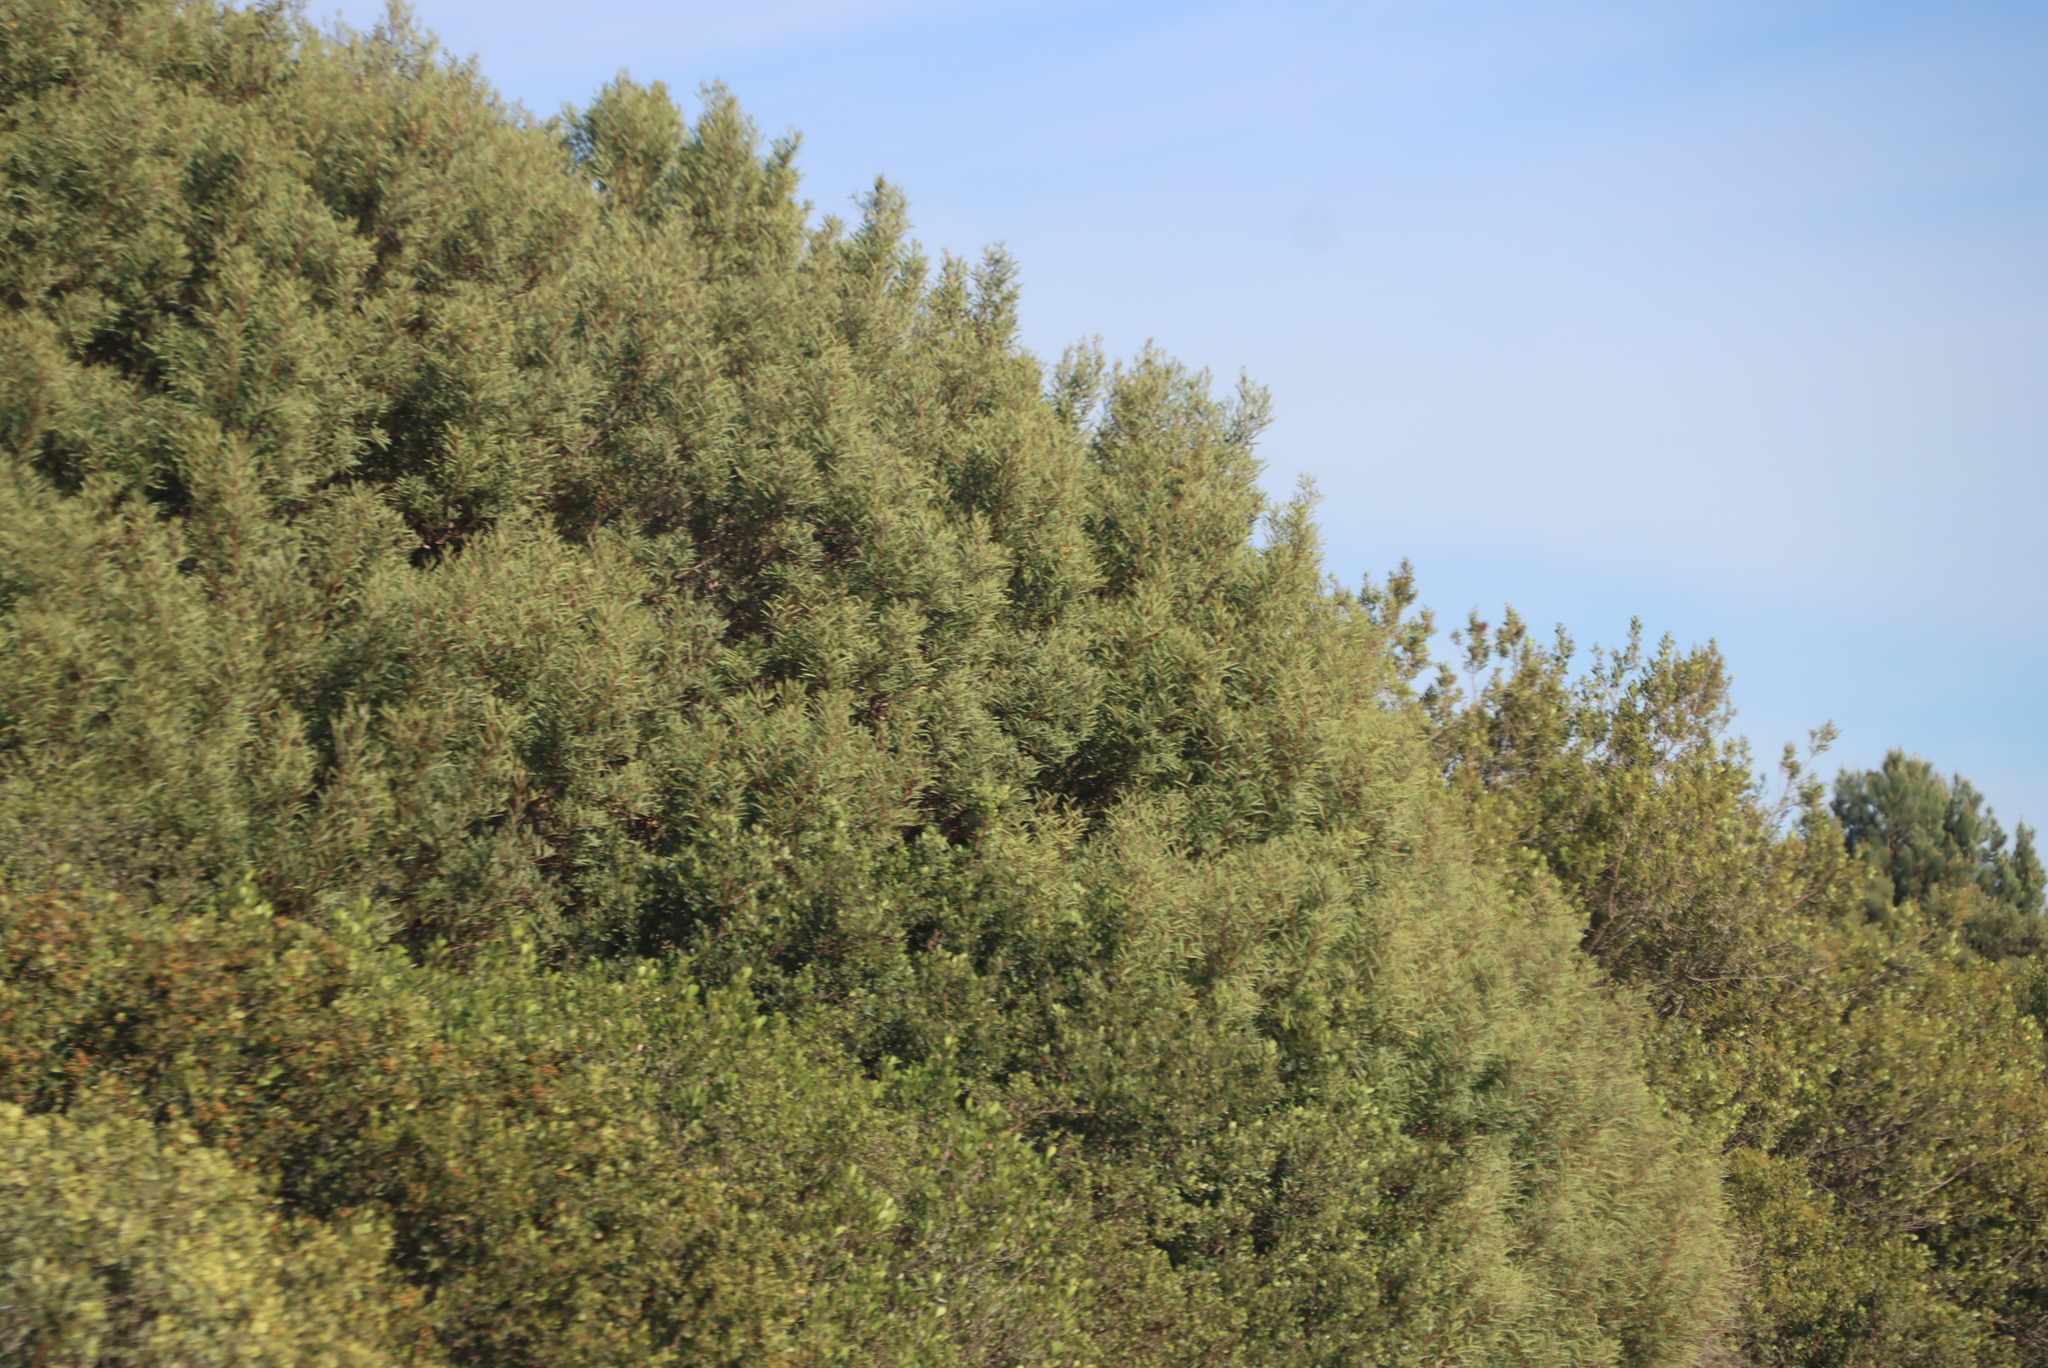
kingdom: Plantae
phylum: Tracheophyta
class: Magnoliopsida
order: Fabales
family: Fabaceae
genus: Acacia
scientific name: Acacia cyclops
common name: Coastal wattle
